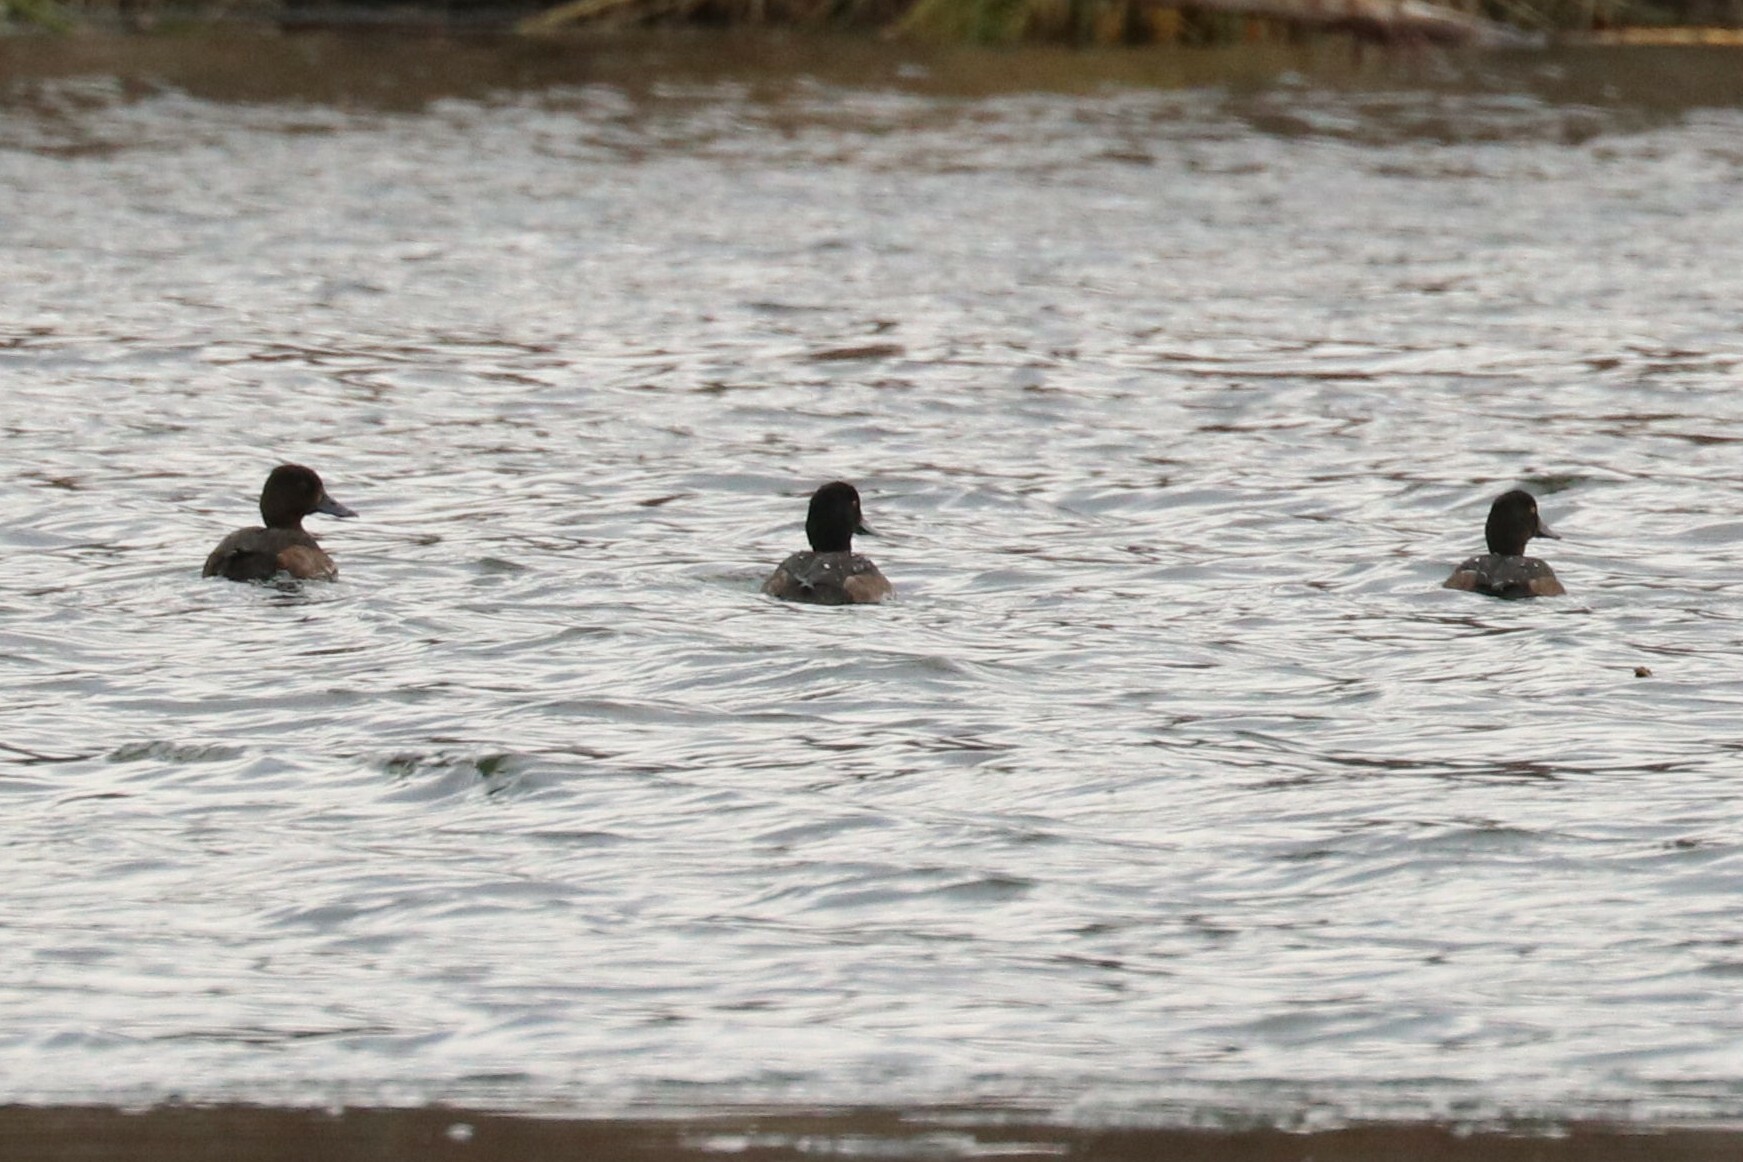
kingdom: Animalia
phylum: Chordata
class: Aves
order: Anseriformes
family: Anatidae
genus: Aythya
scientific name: Aythya fuligula
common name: Tufted duck
